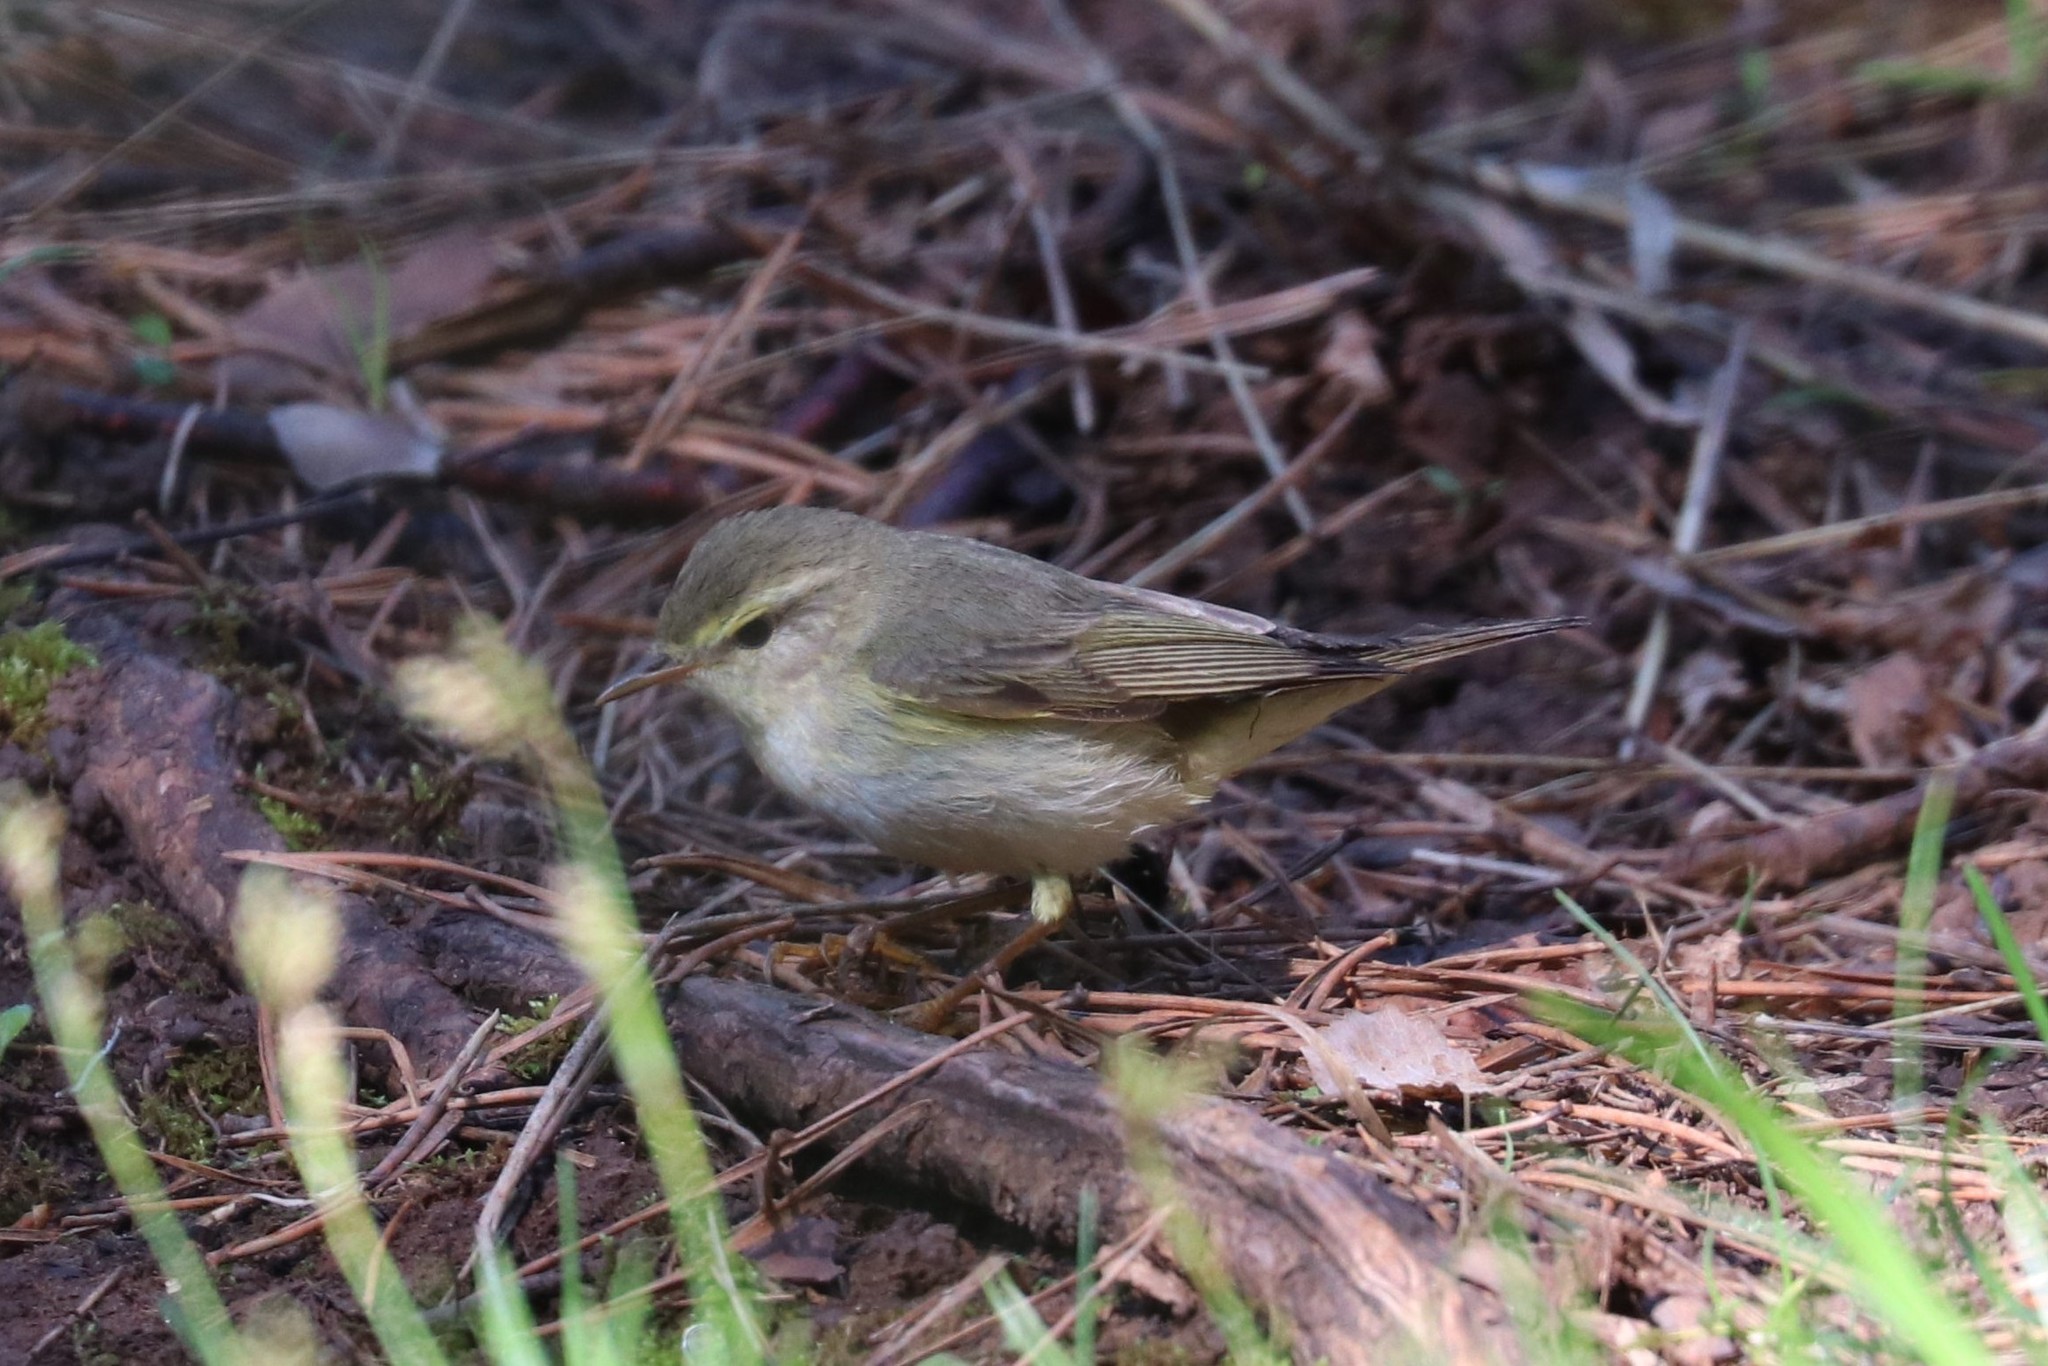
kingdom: Animalia
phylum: Chordata
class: Aves
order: Passeriformes
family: Phylloscopidae
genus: Phylloscopus
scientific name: Phylloscopus trochilus
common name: Willow warbler
